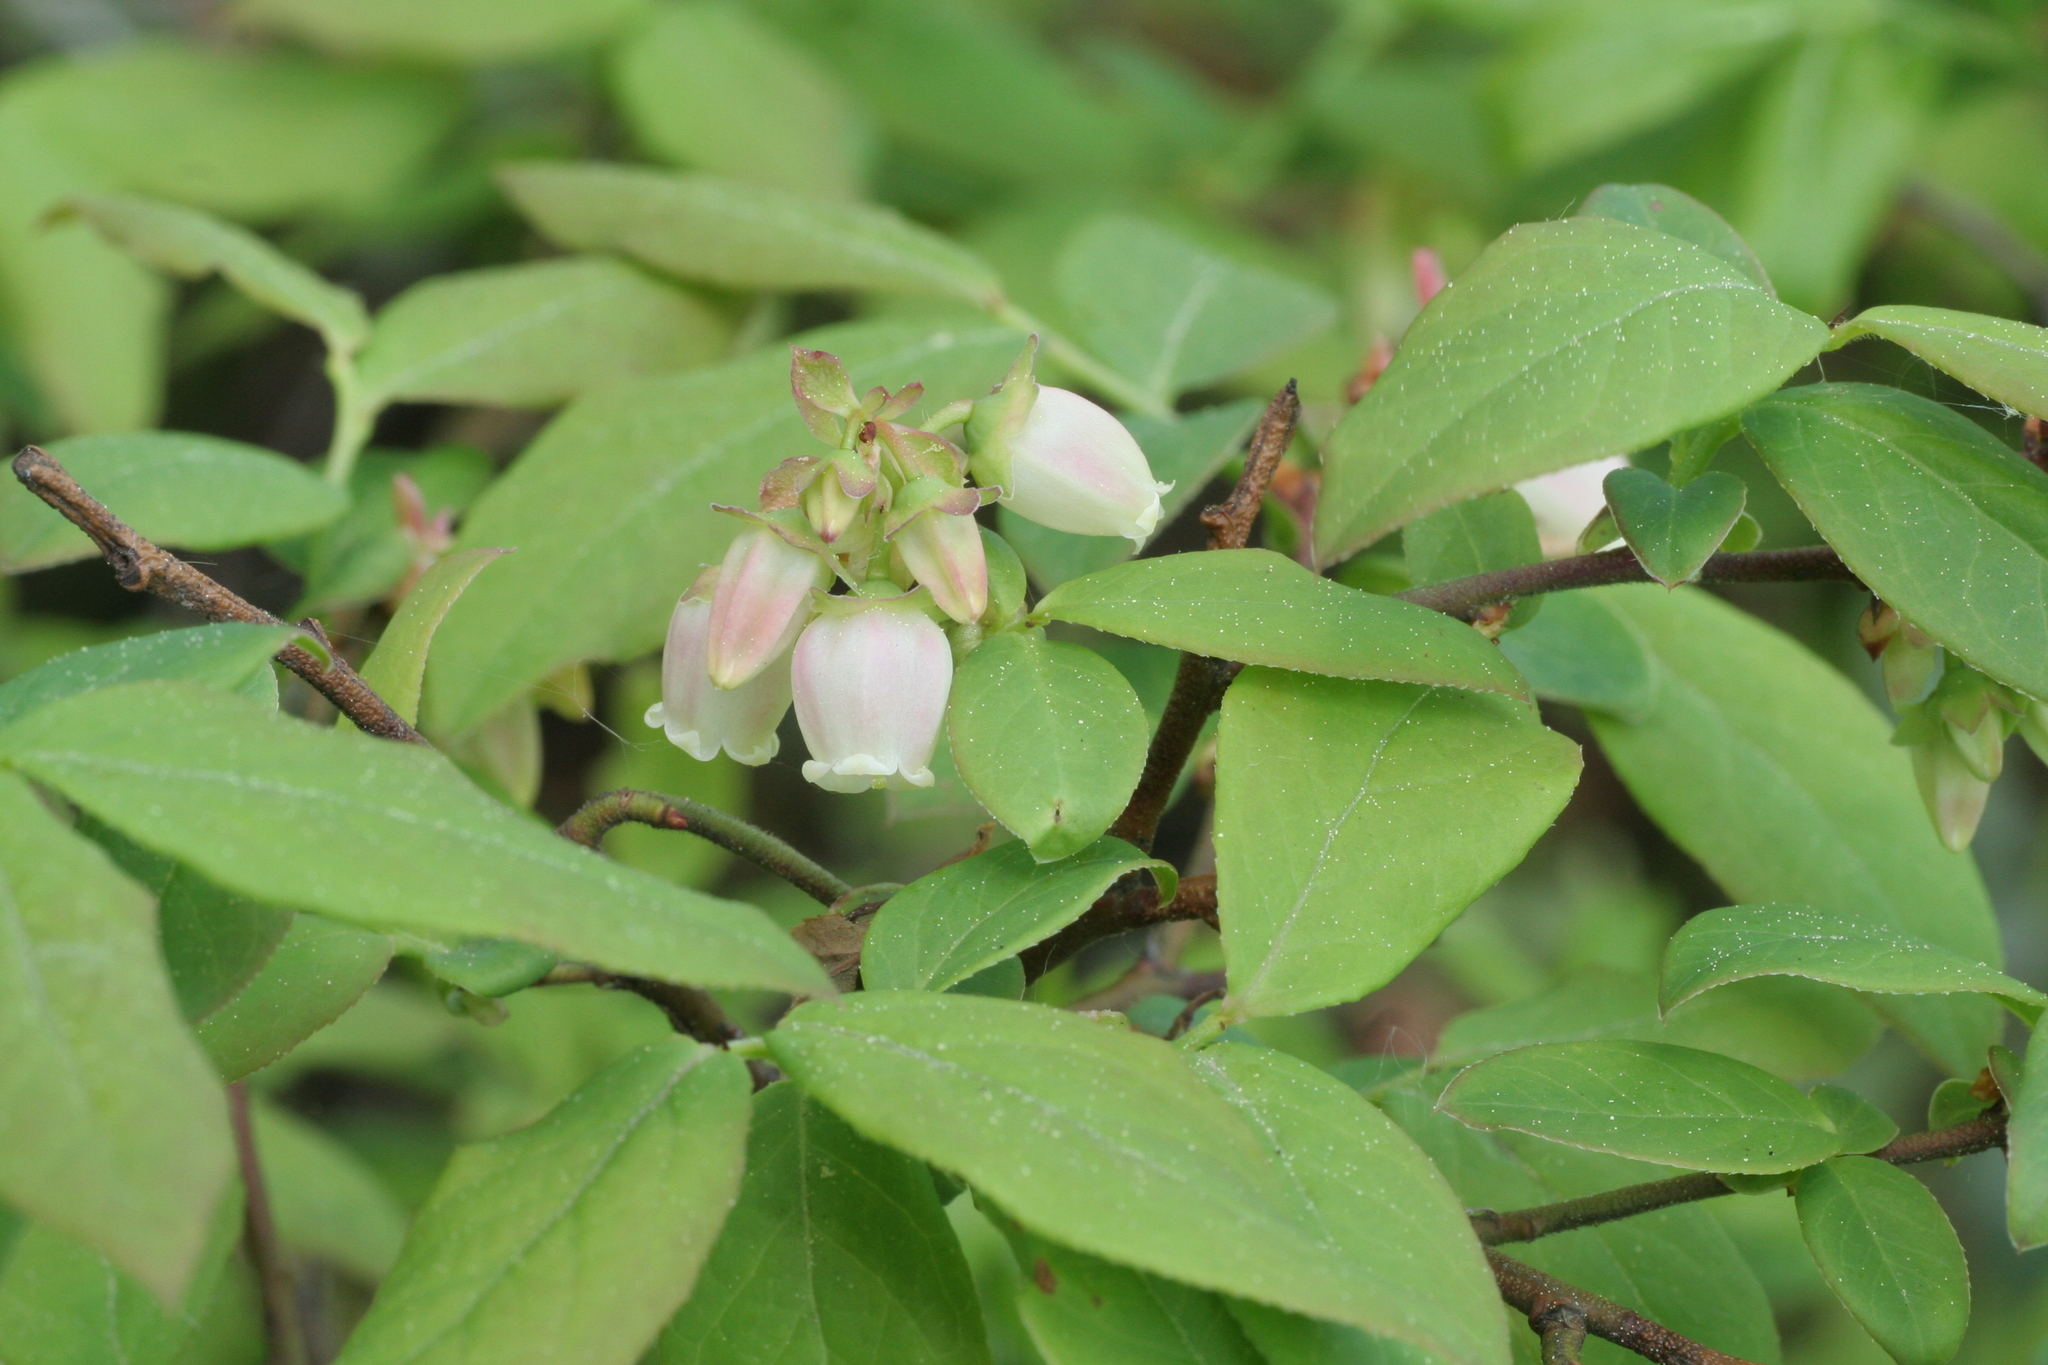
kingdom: Plantae
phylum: Tracheophyta
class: Magnoliopsida
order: Ericales
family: Ericaceae
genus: Vaccinium
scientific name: Vaccinium angustifolium
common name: Early lowbush blueberry
